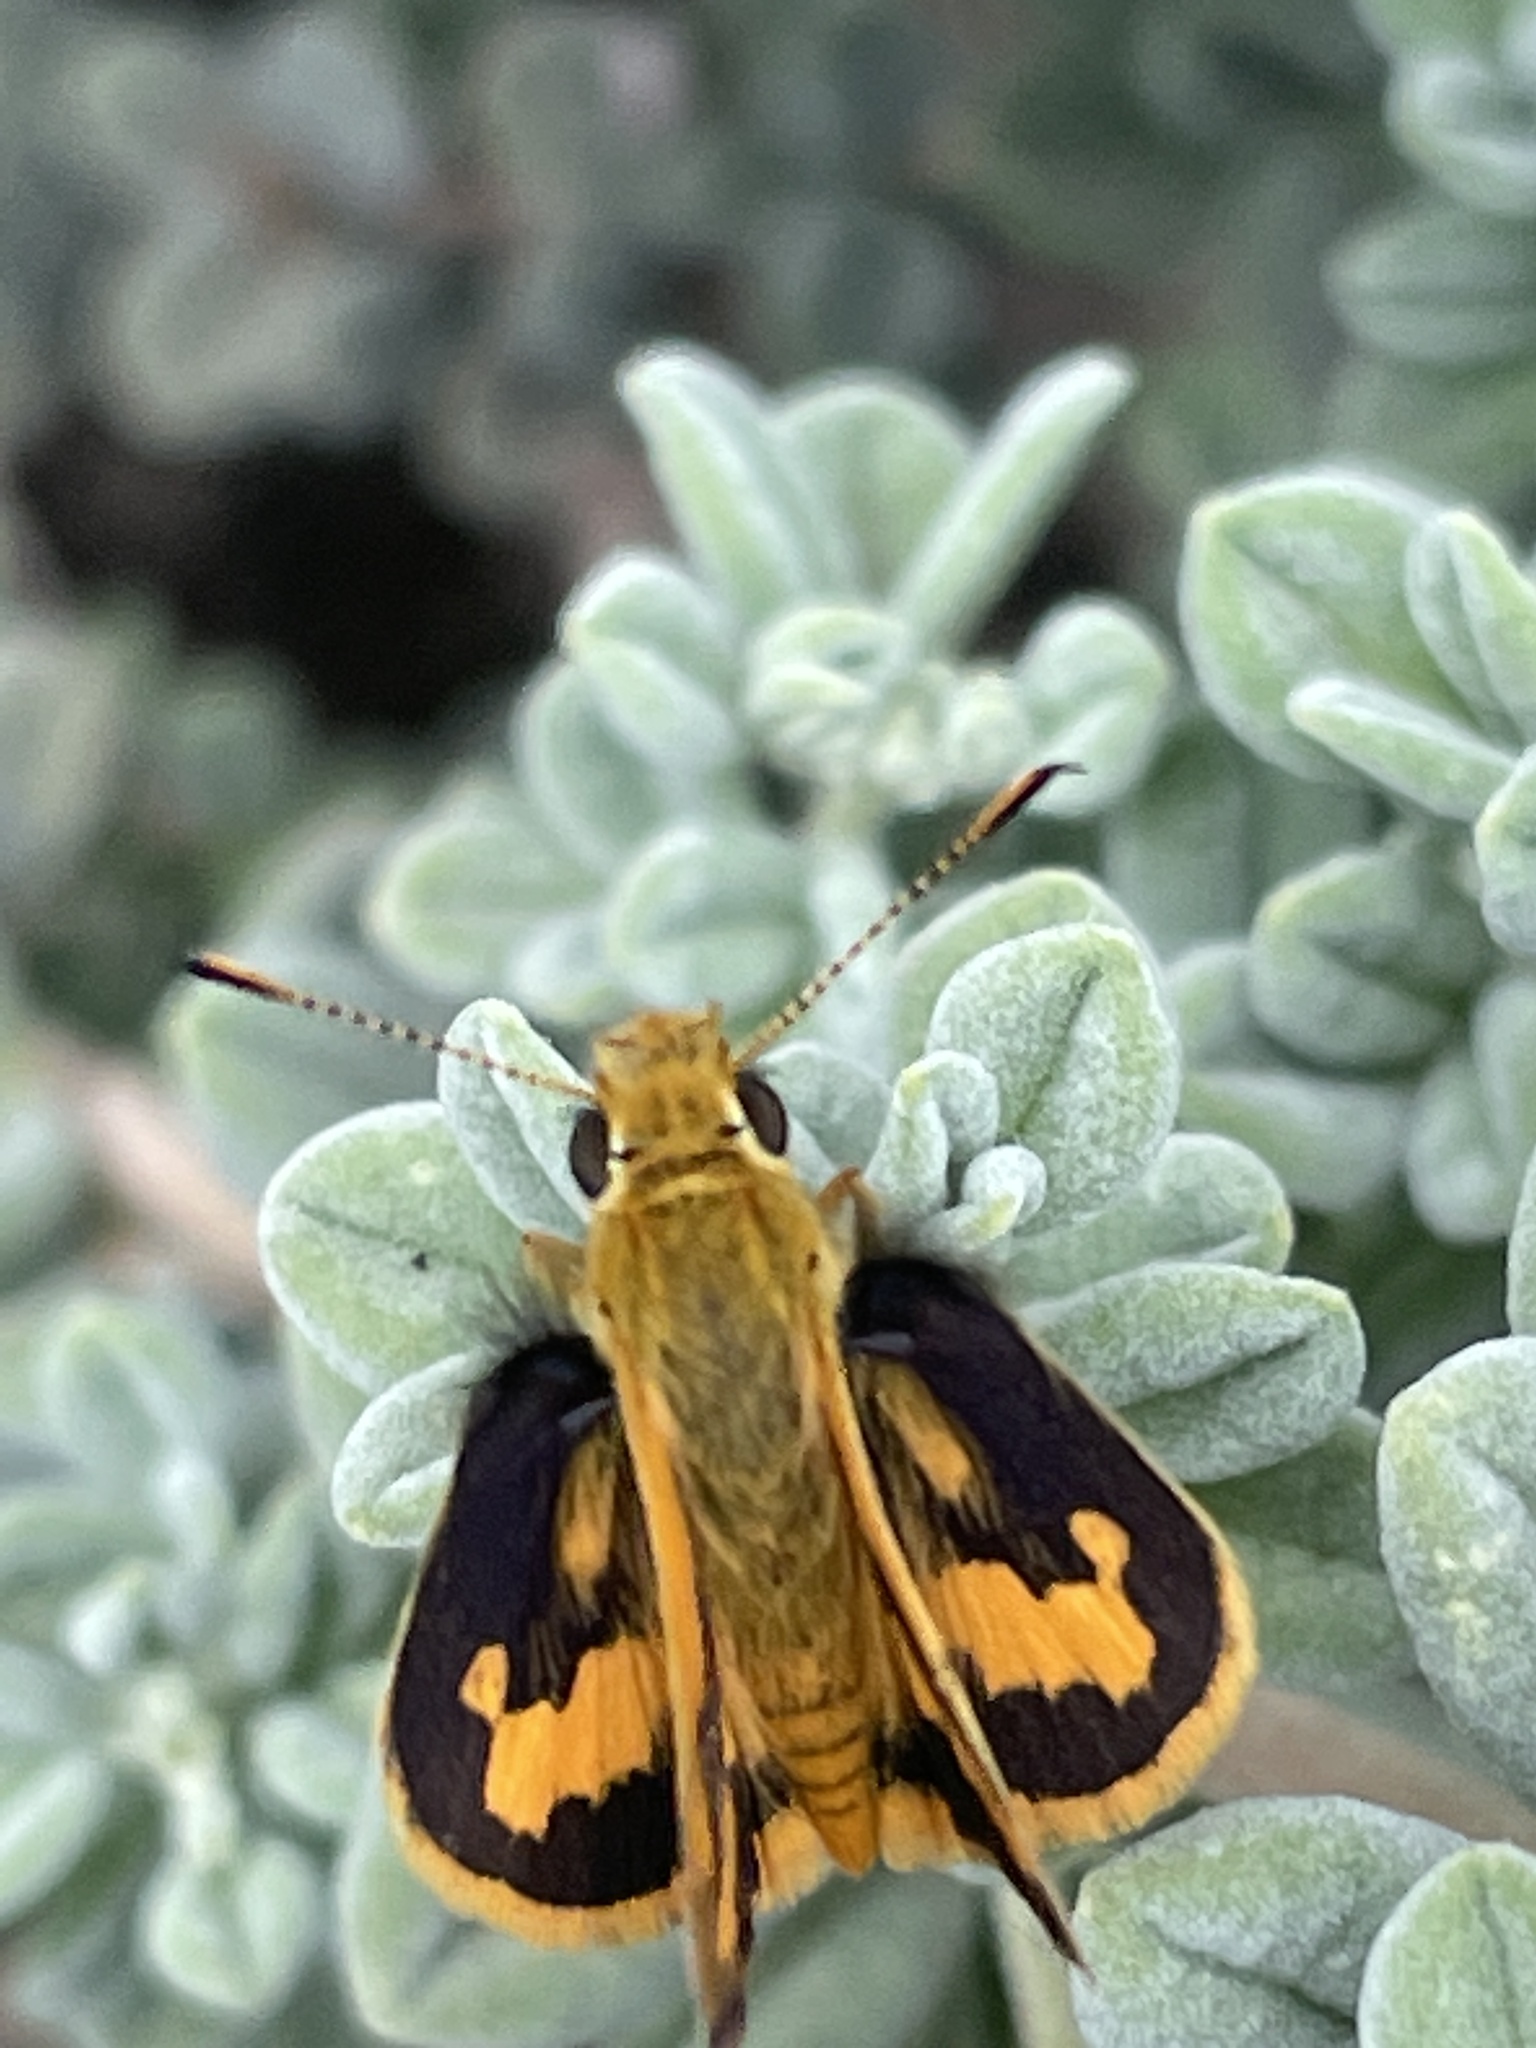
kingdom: Animalia
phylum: Arthropoda
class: Insecta
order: Lepidoptera
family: Hesperiidae
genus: Ocybadistes
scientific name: Ocybadistes walkeri
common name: Yellow-banded dart
